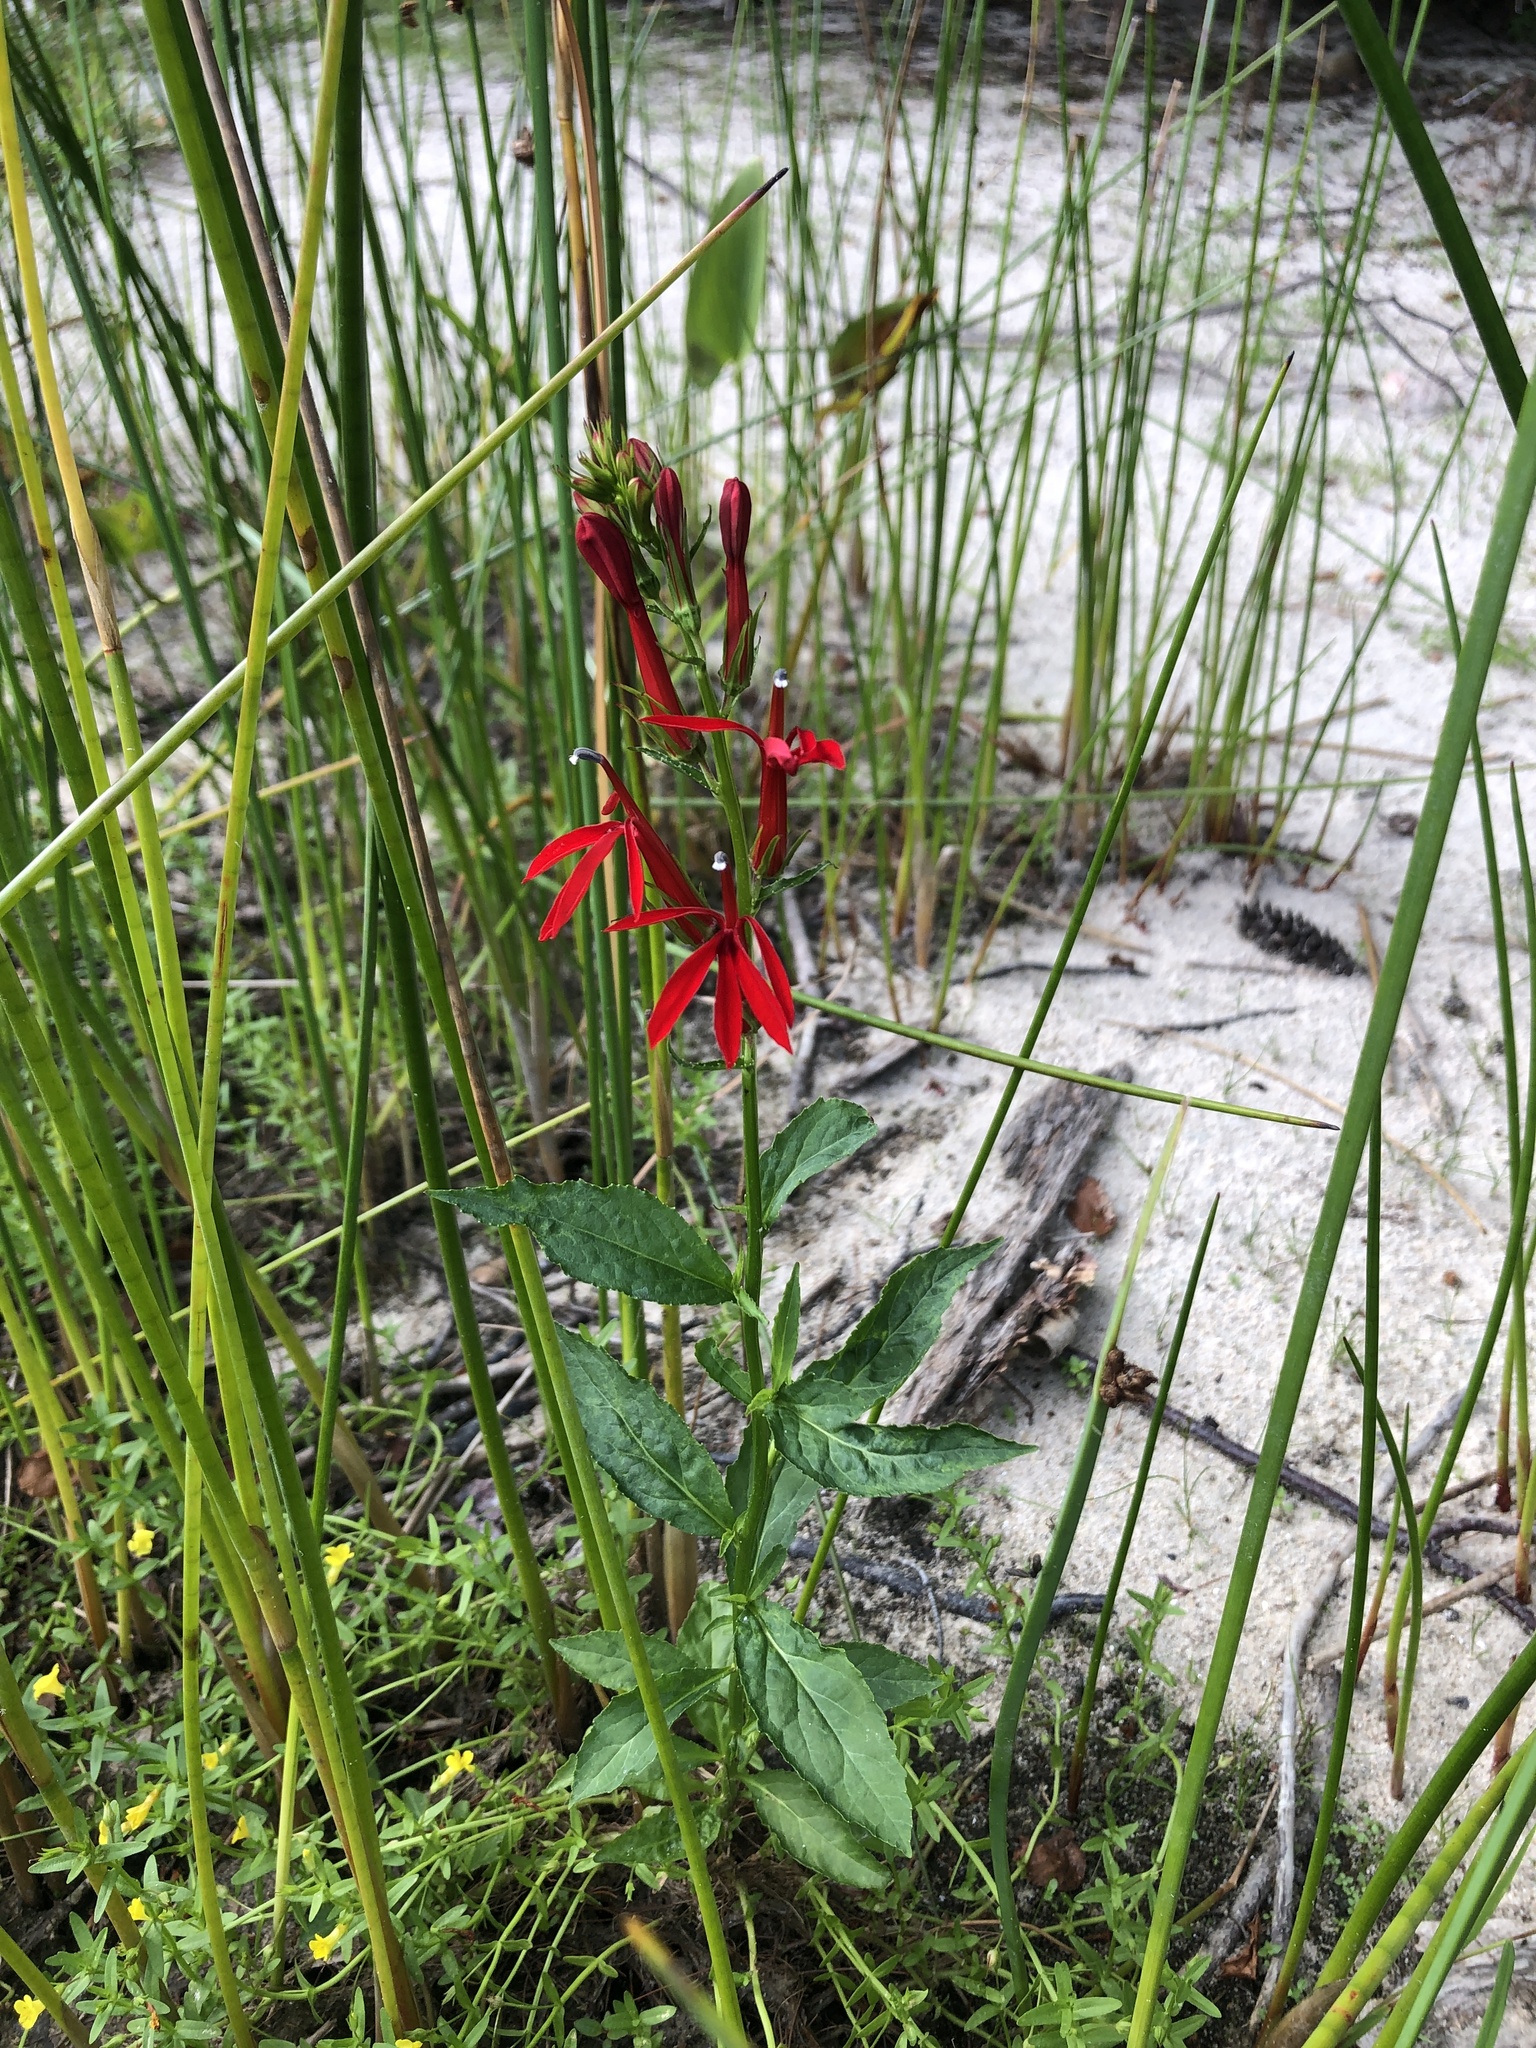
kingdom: Plantae
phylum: Tracheophyta
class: Magnoliopsida
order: Asterales
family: Campanulaceae
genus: Lobelia
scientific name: Lobelia cardinalis
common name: Cardinal flower
